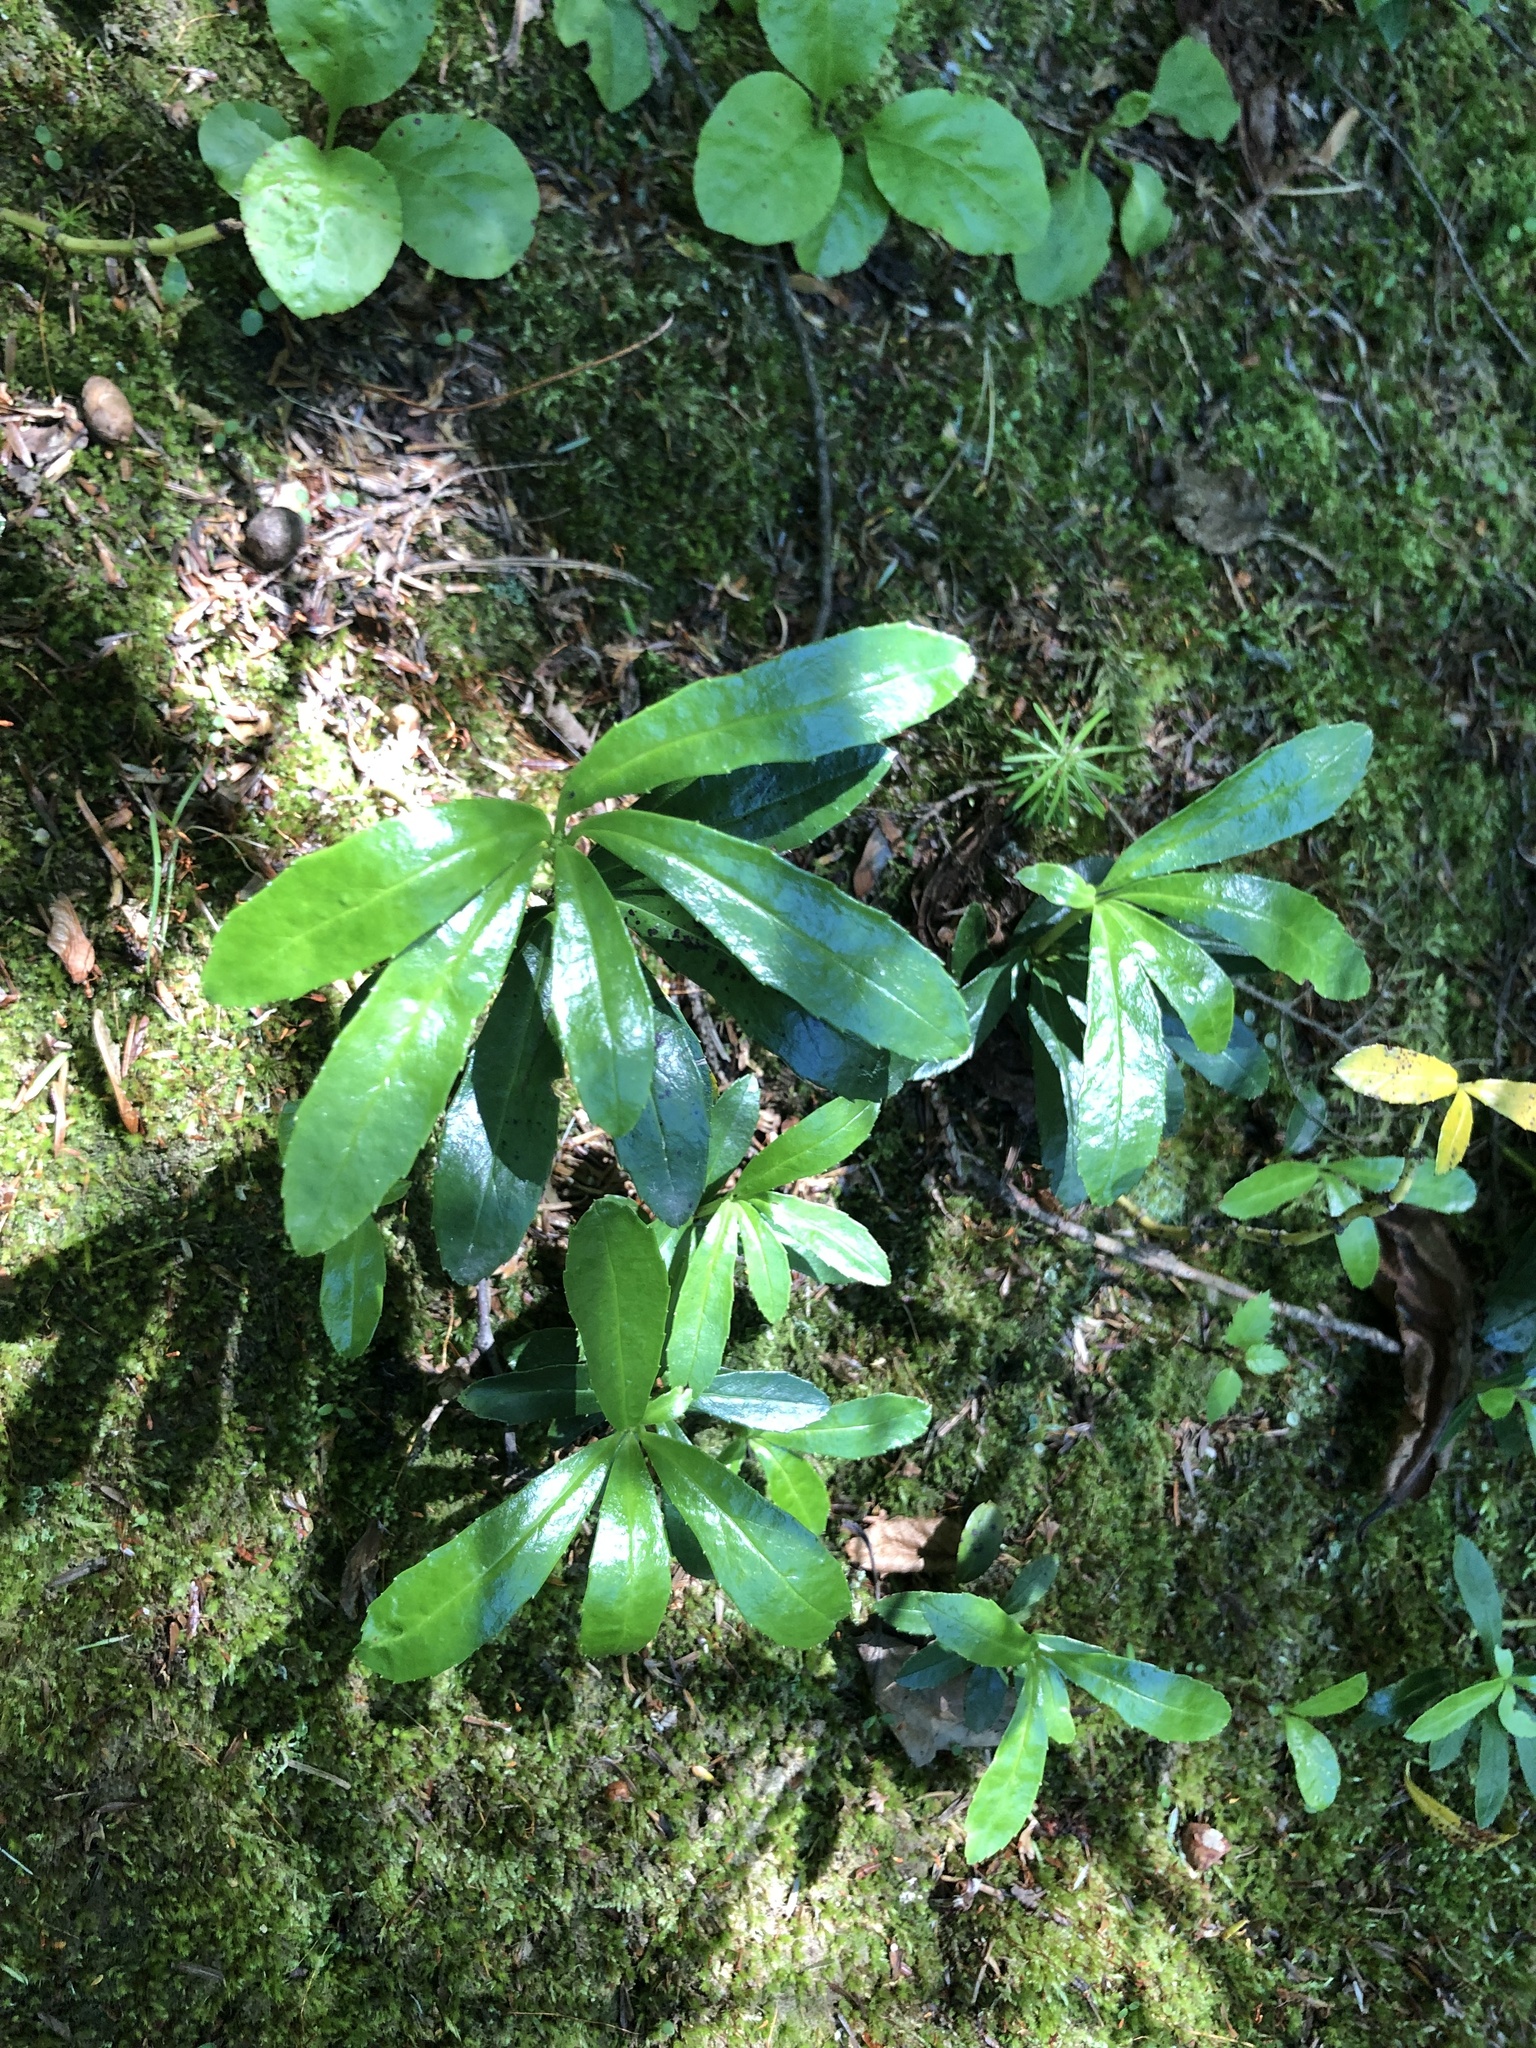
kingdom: Plantae
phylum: Tracheophyta
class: Magnoliopsida
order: Ericales
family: Ericaceae
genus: Chimaphila
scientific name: Chimaphila umbellata
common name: Pipsissewa
